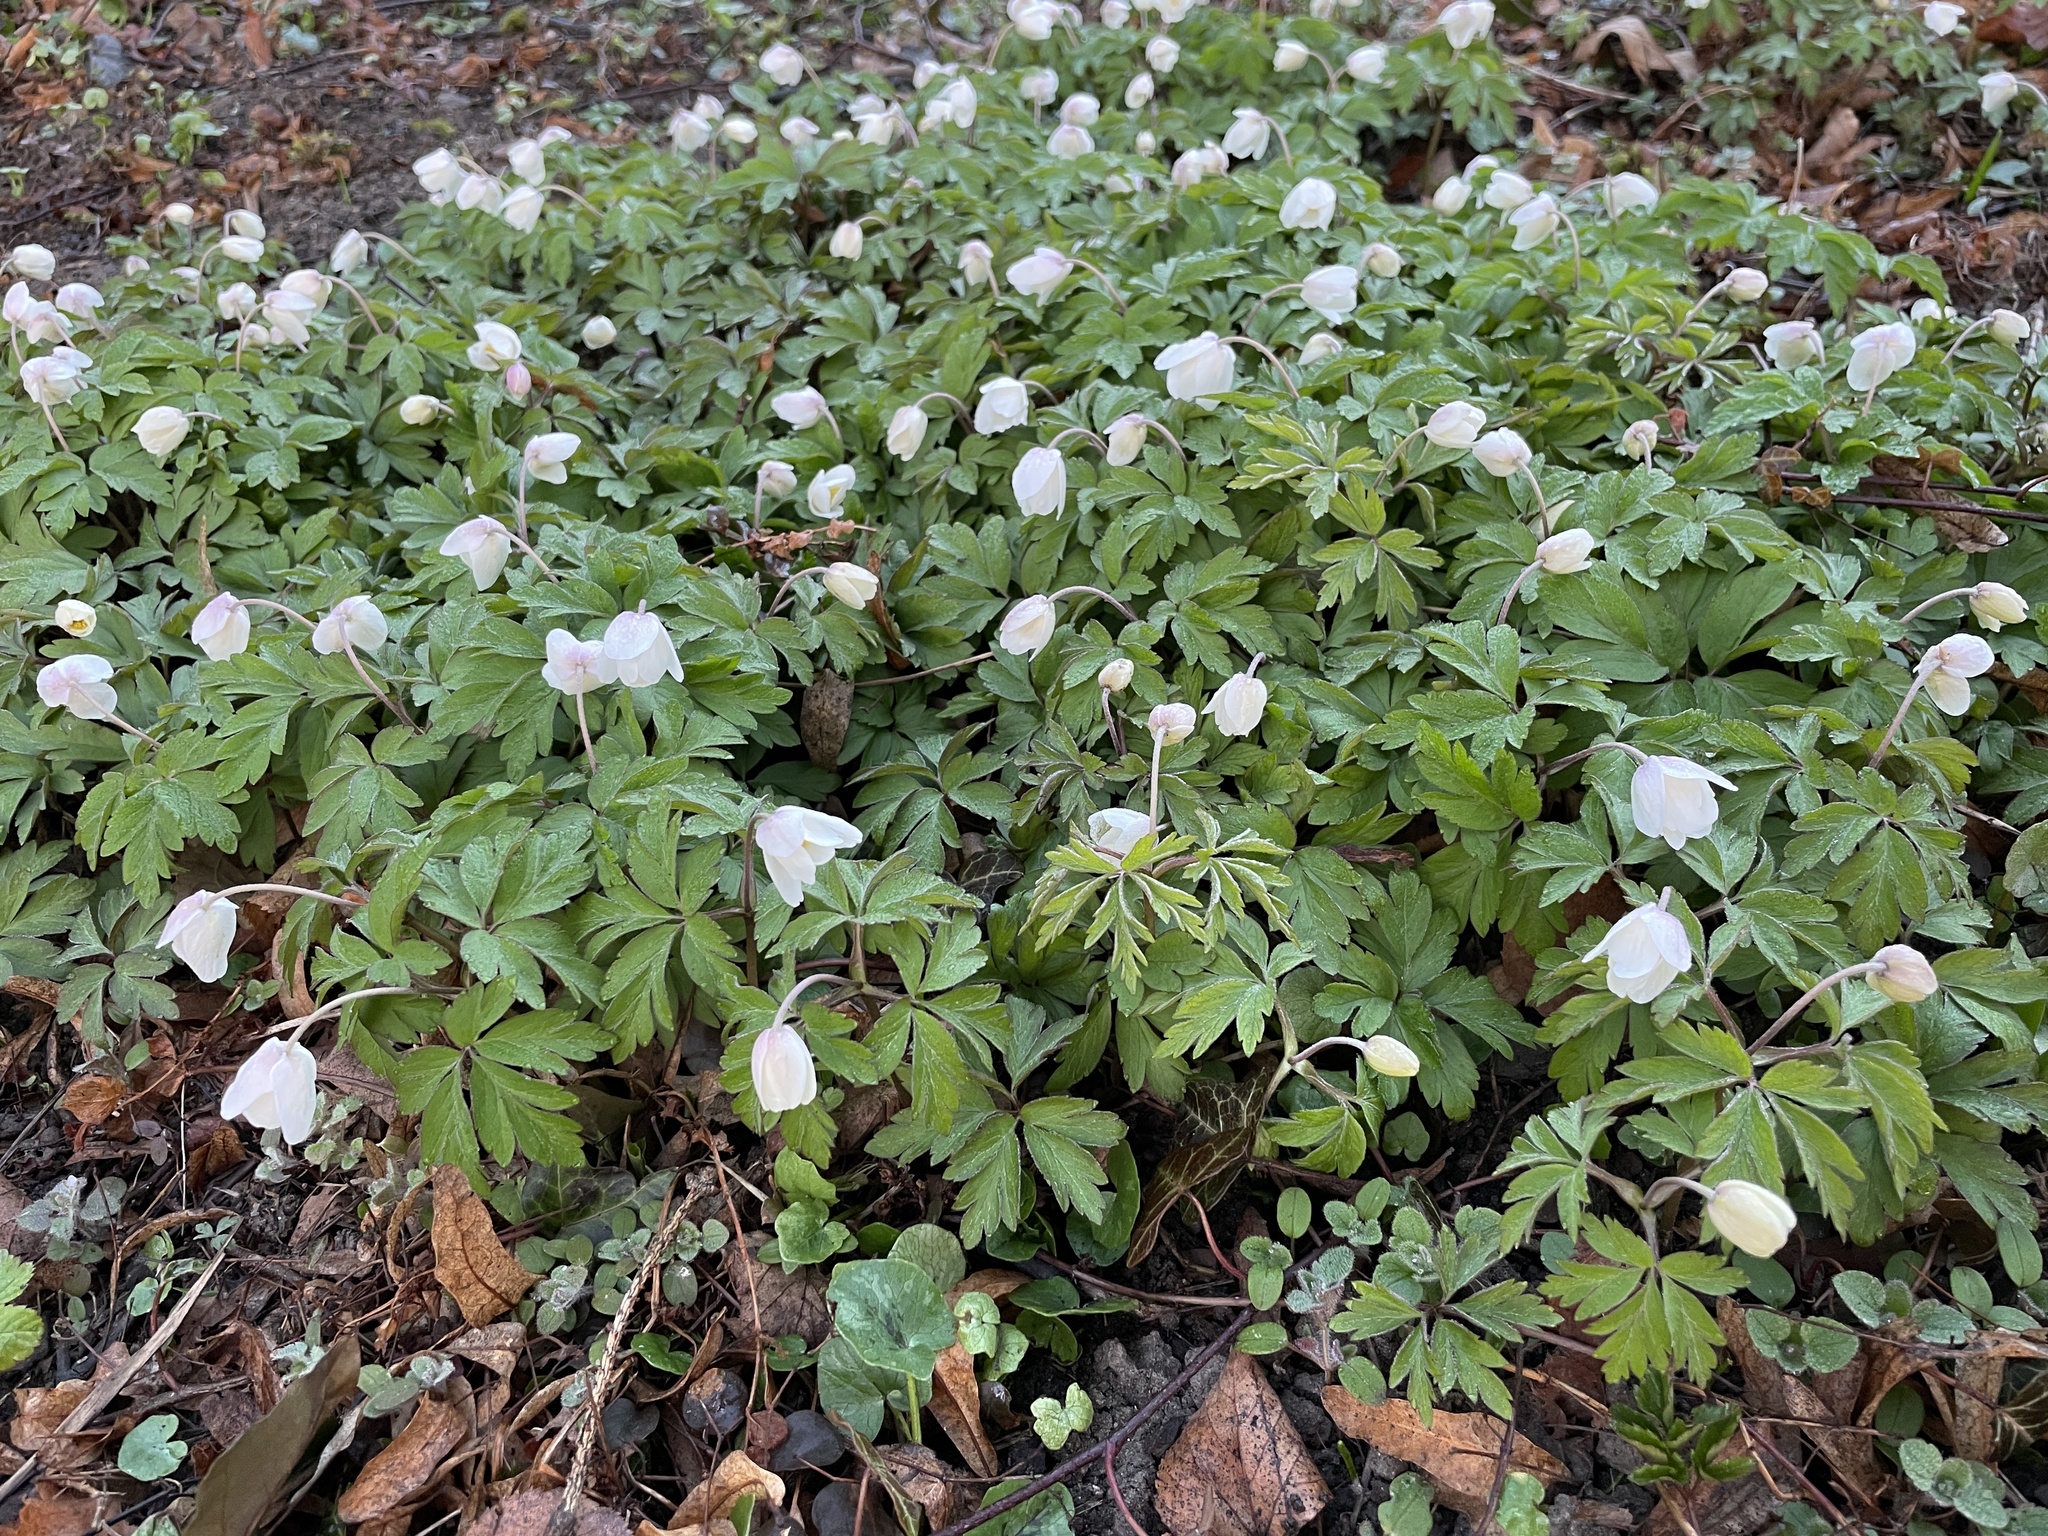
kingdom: Plantae
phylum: Tracheophyta
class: Magnoliopsida
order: Ranunculales
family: Ranunculaceae
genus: Anemone
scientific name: Anemone nemorosa
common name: Wood anemone
